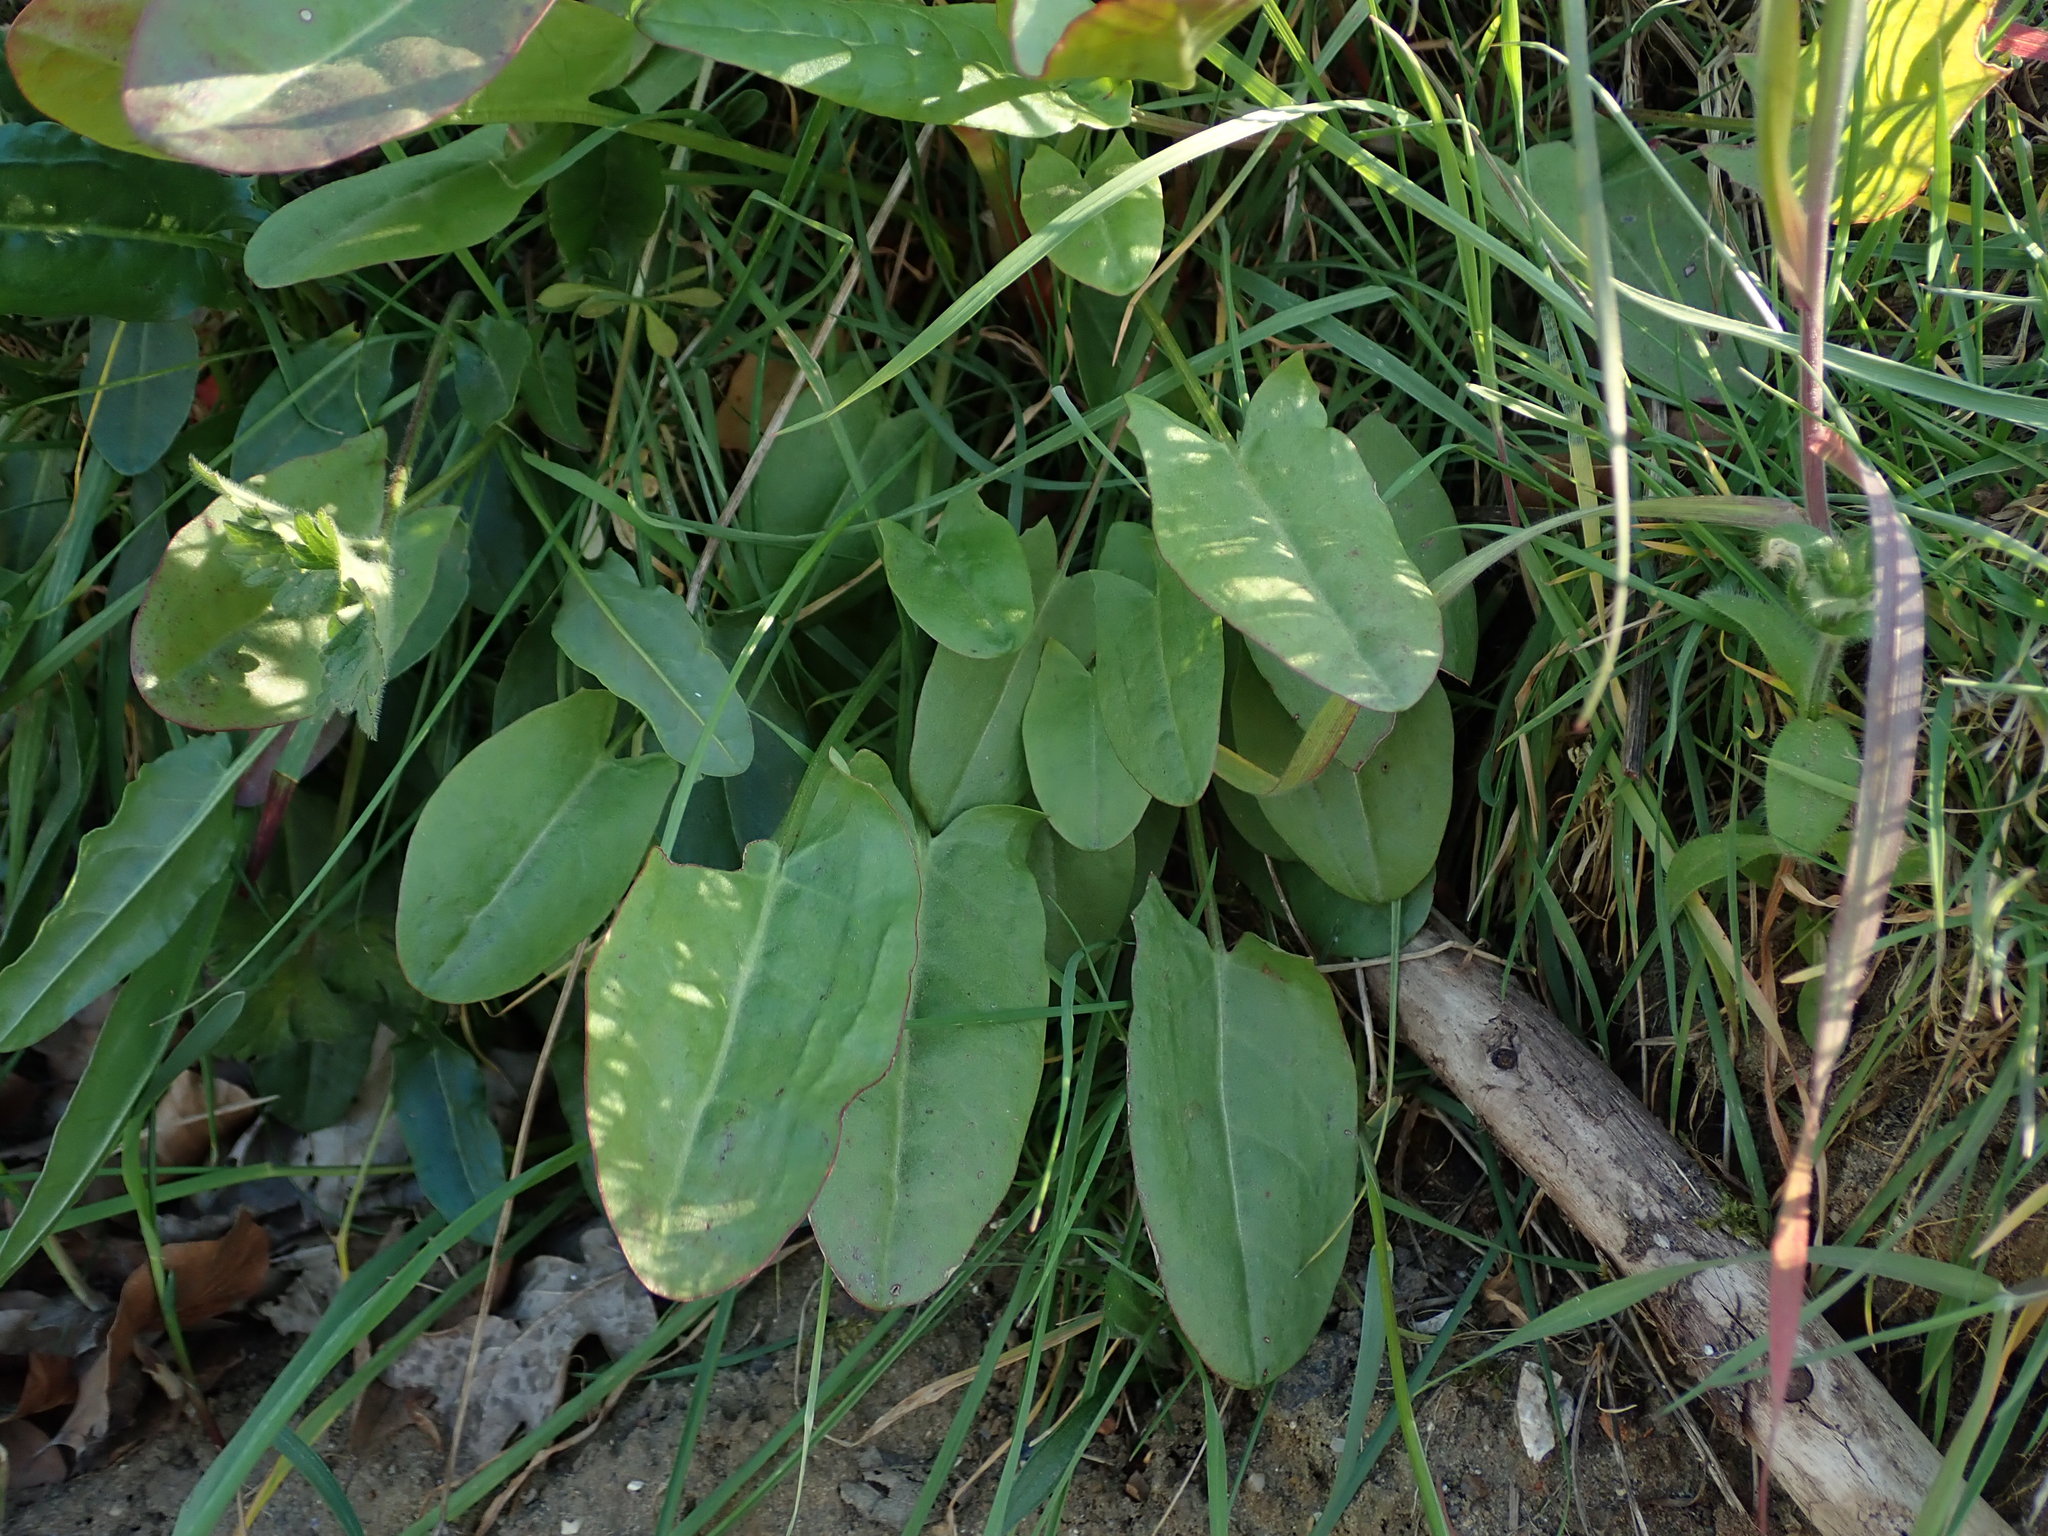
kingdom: Plantae
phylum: Tracheophyta
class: Magnoliopsida
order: Caryophyllales
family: Polygonaceae
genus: Rumex
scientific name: Rumex acetosa
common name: Garden sorrel
